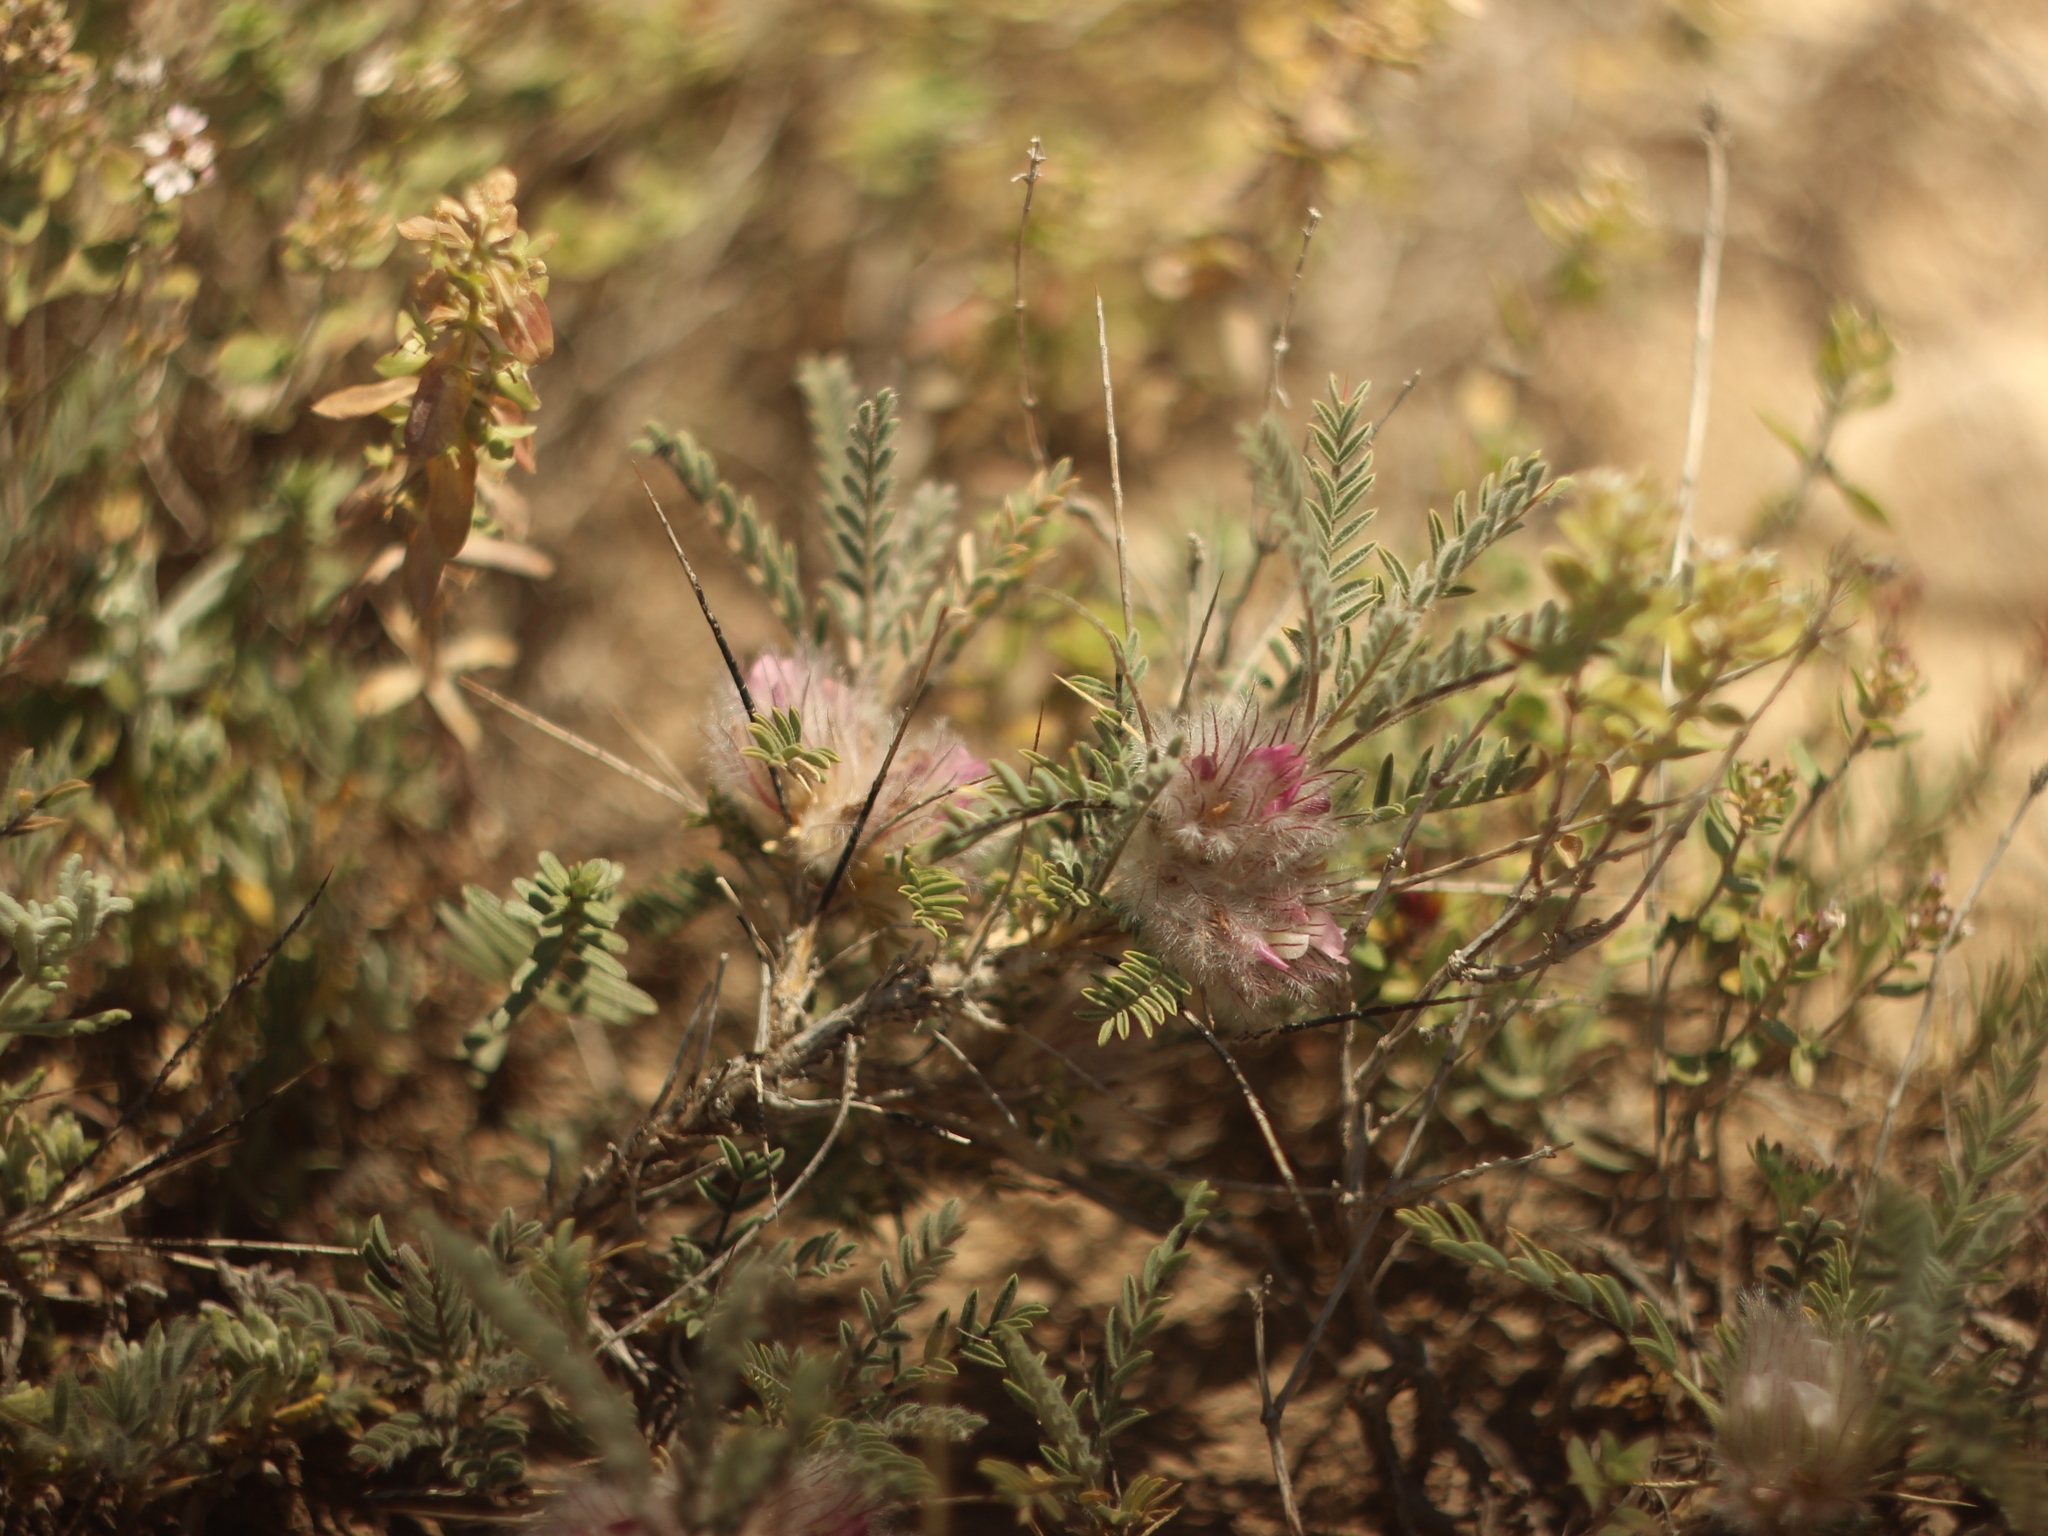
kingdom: Plantae
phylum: Tracheophyta
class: Magnoliopsida
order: Fabales
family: Fabaceae
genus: Astragalus
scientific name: Astragalus polyanthus
